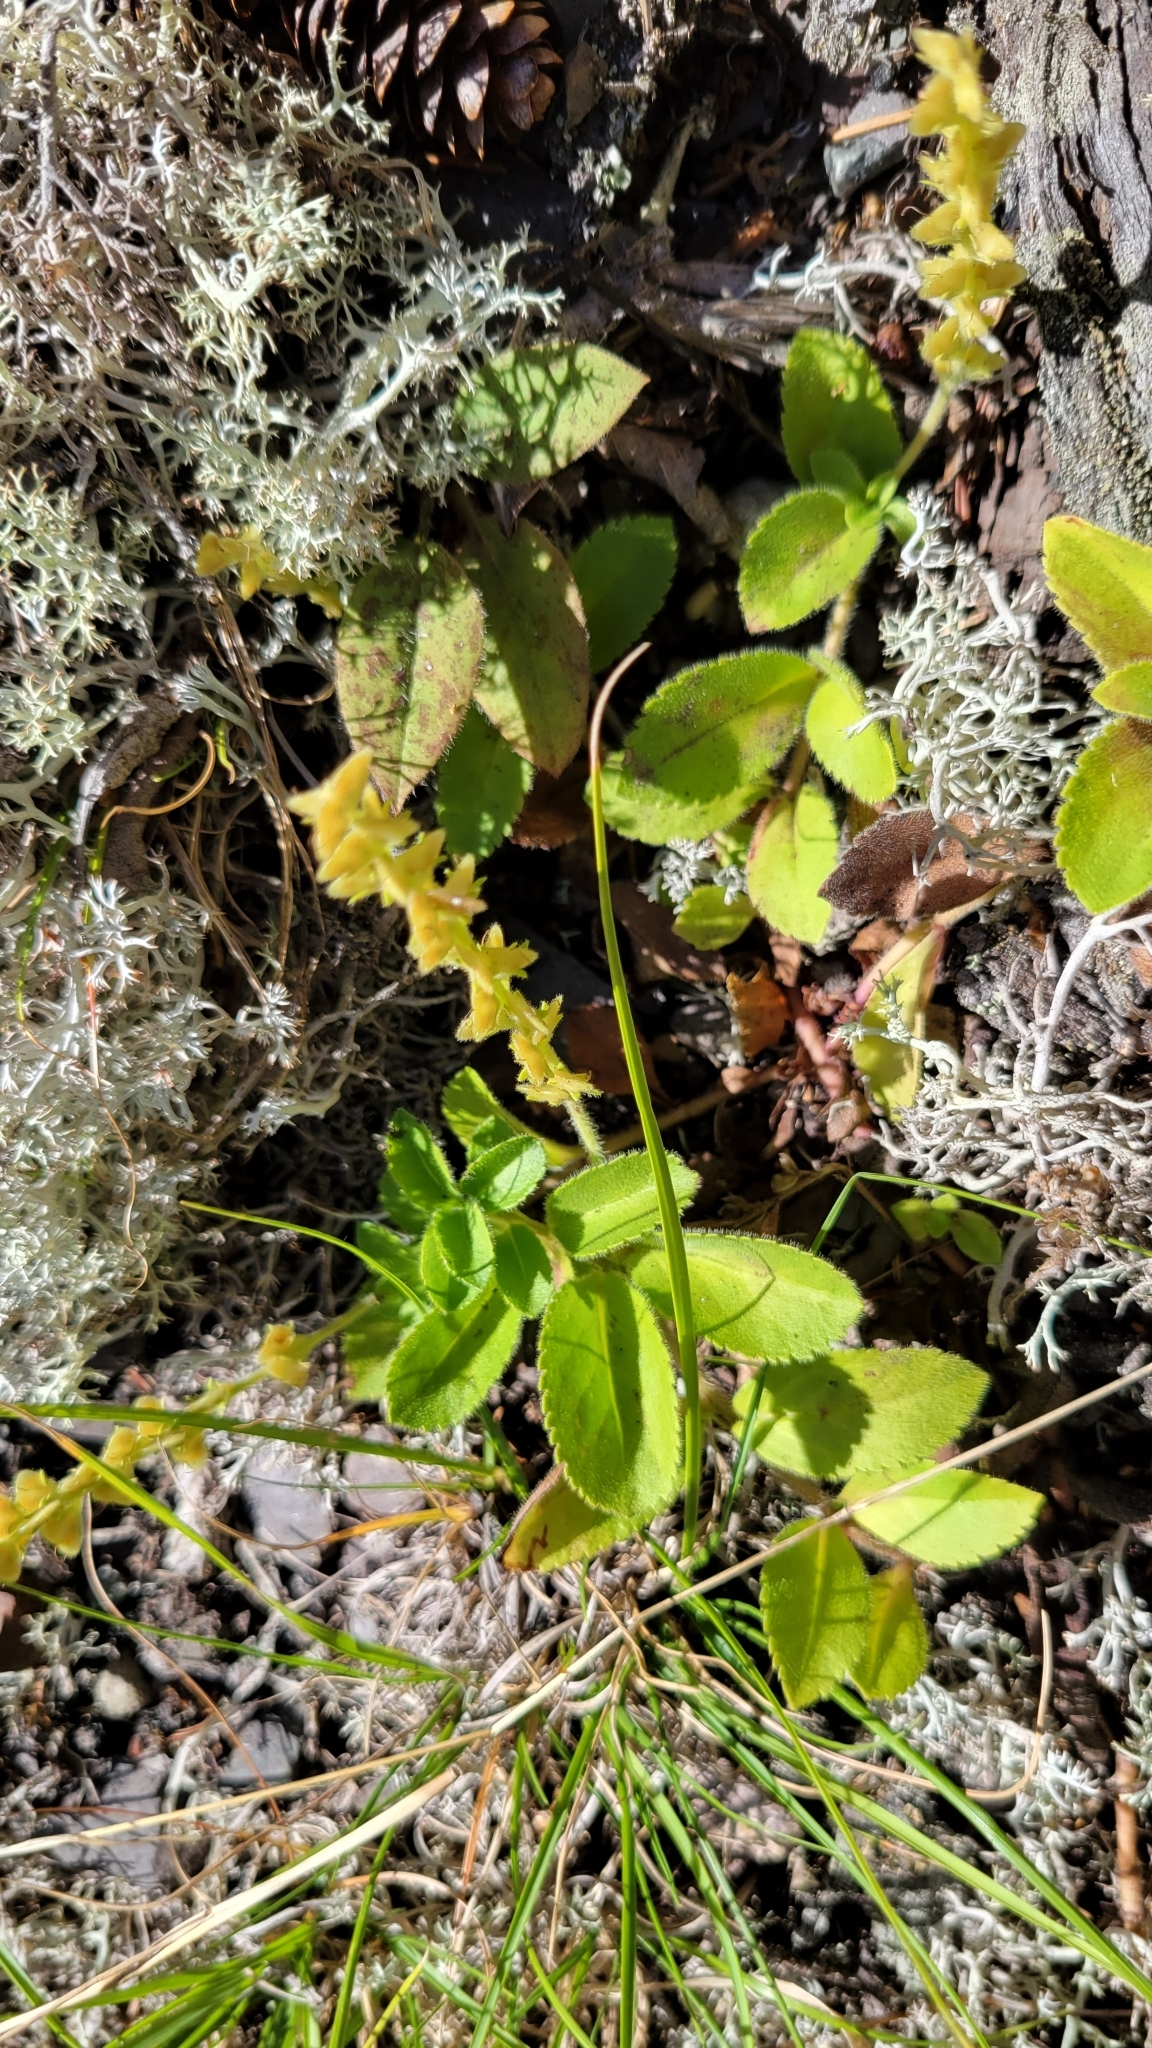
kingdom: Plantae
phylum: Tracheophyta
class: Magnoliopsida
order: Lamiales
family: Plantaginaceae
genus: Veronica
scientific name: Veronica officinalis
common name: Common speedwell
